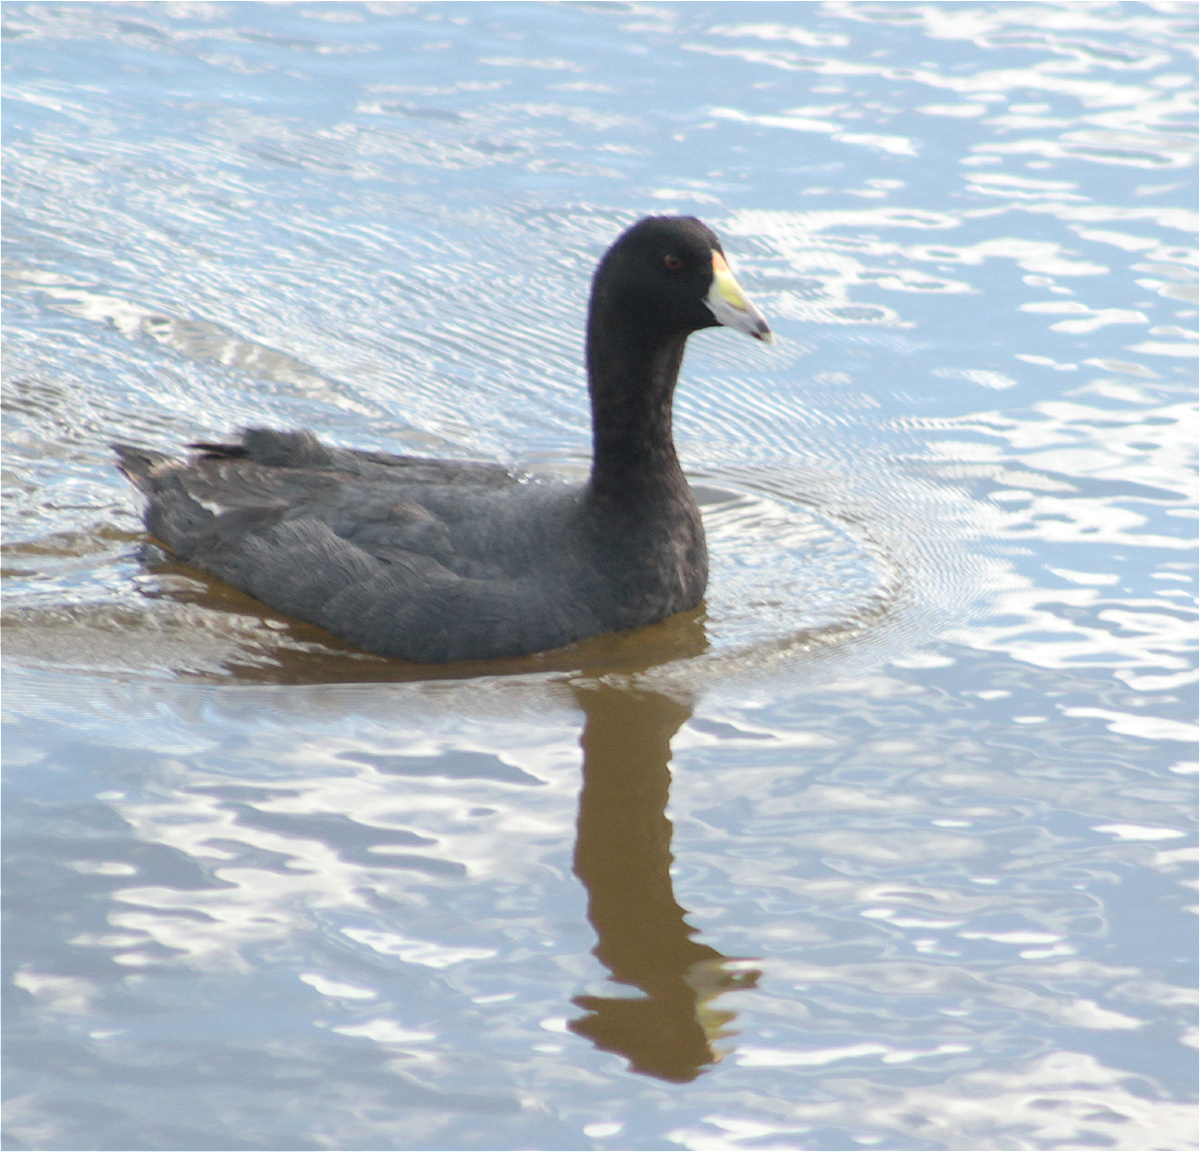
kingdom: Animalia
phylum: Chordata
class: Aves
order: Gruiformes
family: Rallidae
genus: Fulica
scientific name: Fulica americana
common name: American coot
